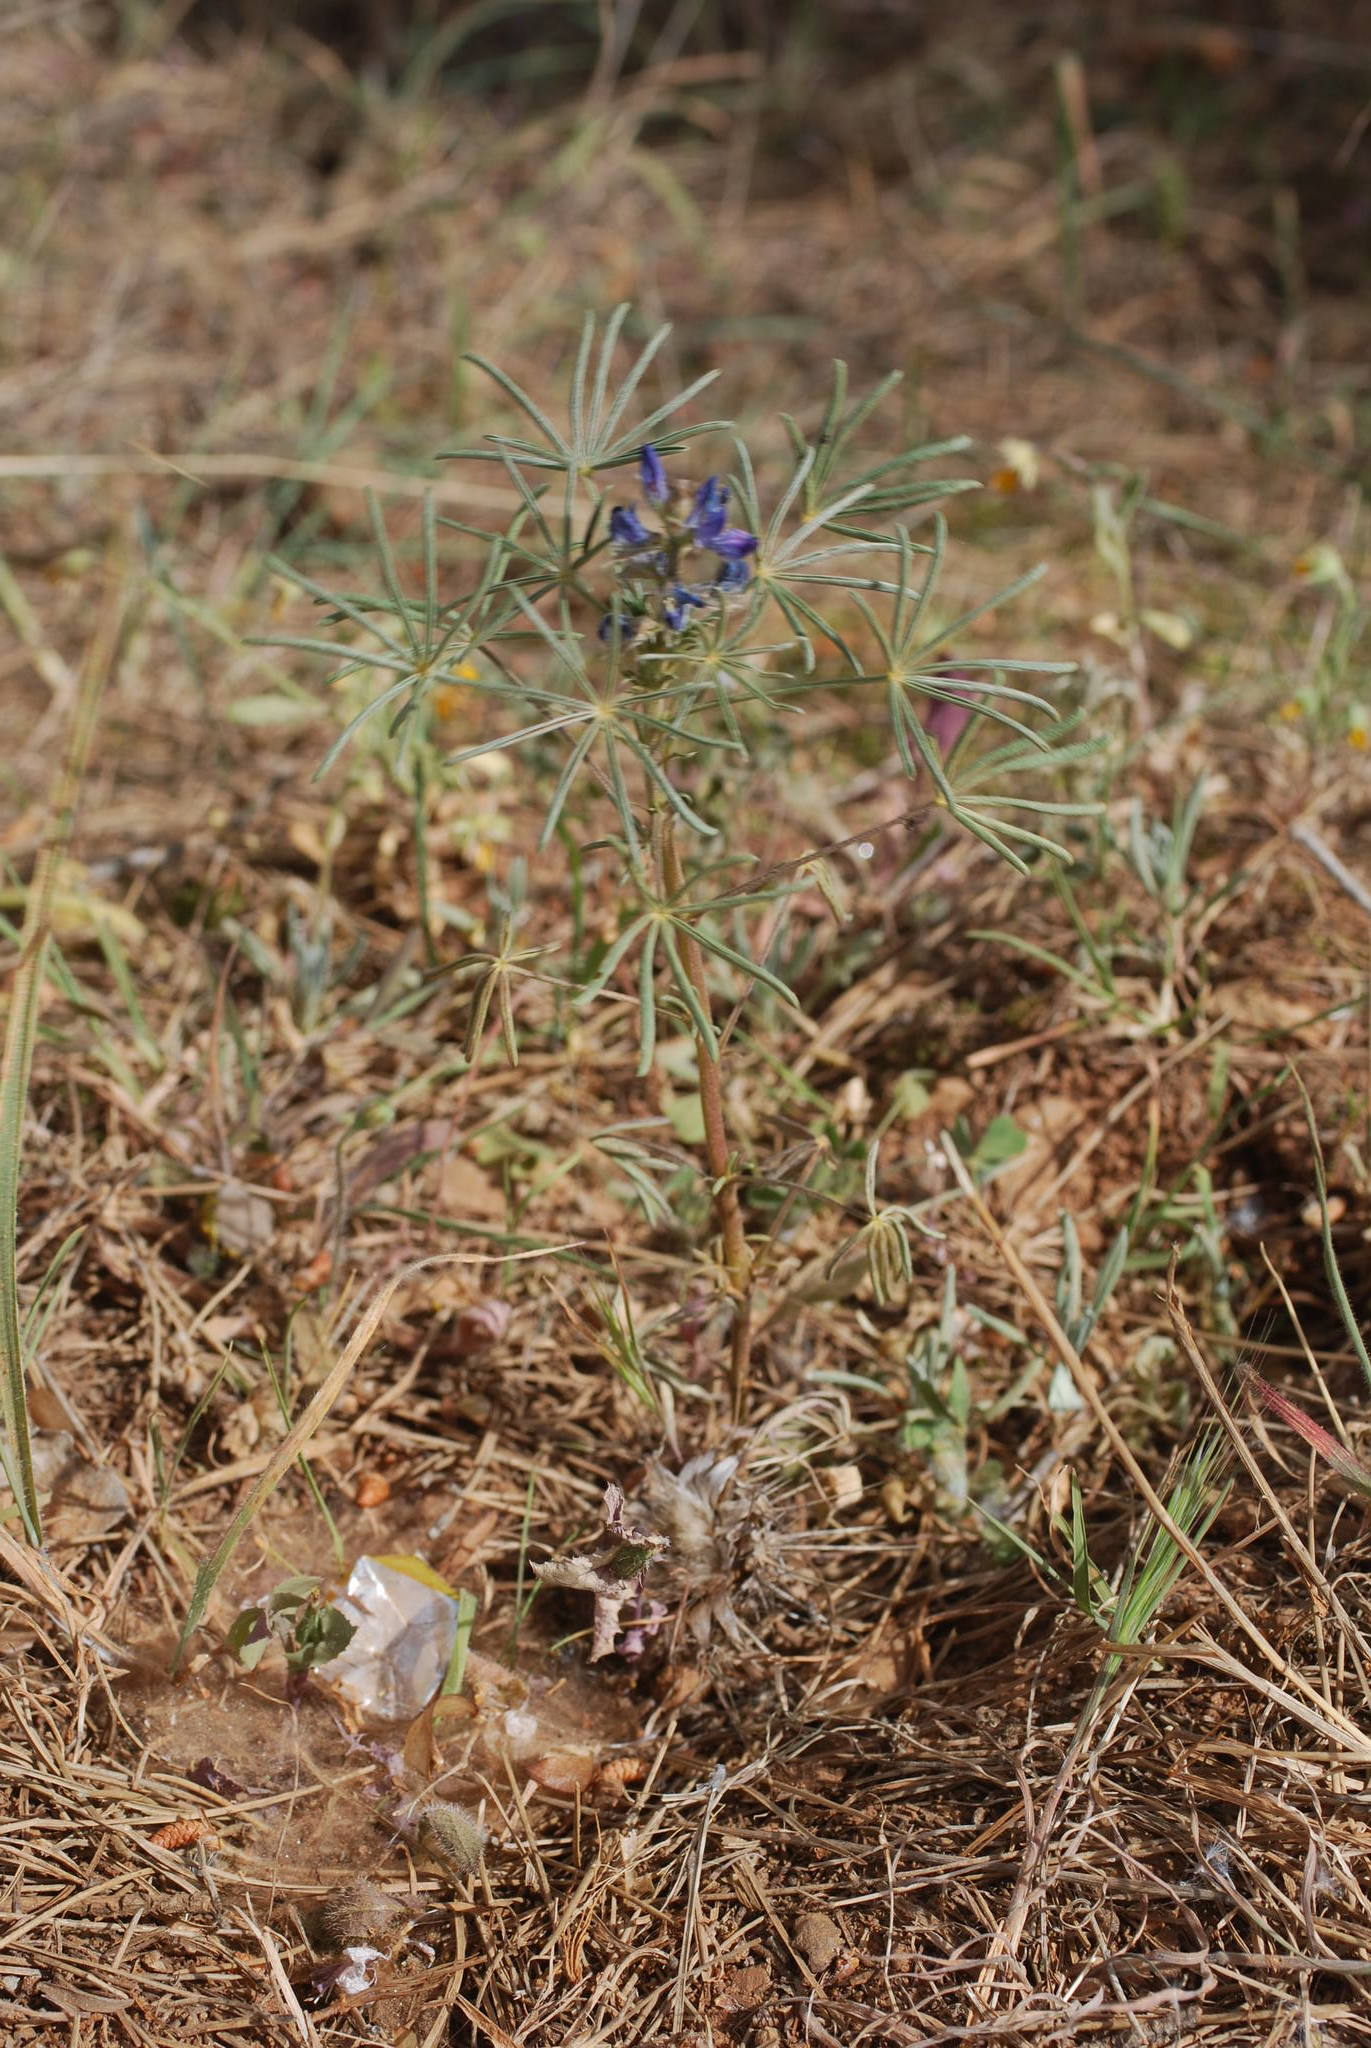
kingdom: Plantae
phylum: Tracheophyta
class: Magnoliopsida
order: Fabales
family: Fabaceae
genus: Lupinus
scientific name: Lupinus angustifolius
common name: Narrow-leaved lupin
